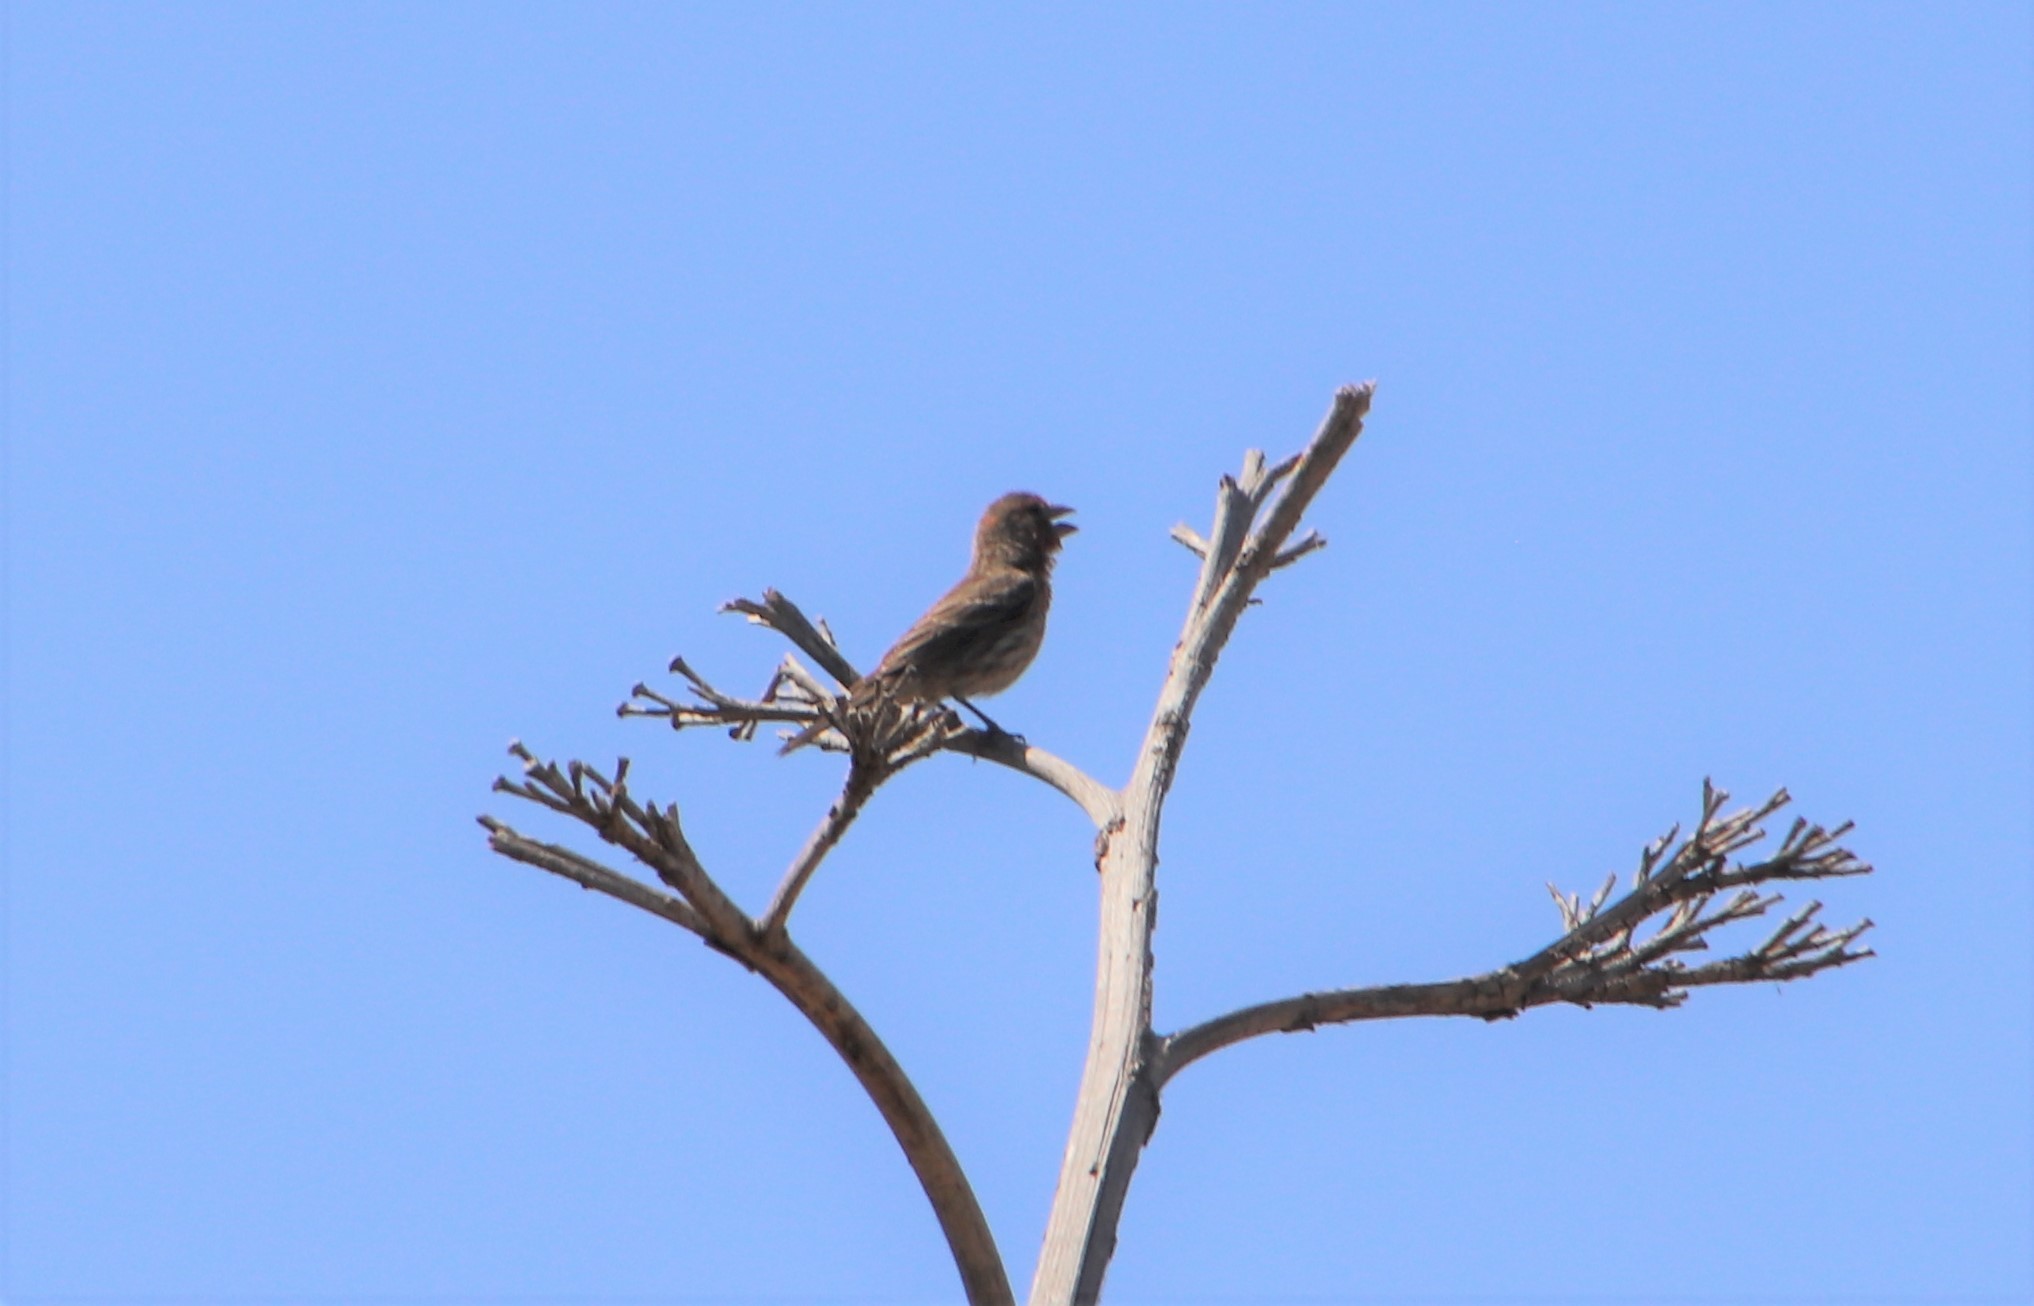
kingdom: Animalia
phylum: Chordata
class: Aves
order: Passeriformes
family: Fringillidae
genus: Haemorhous
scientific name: Haemorhous mexicanus
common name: House finch
